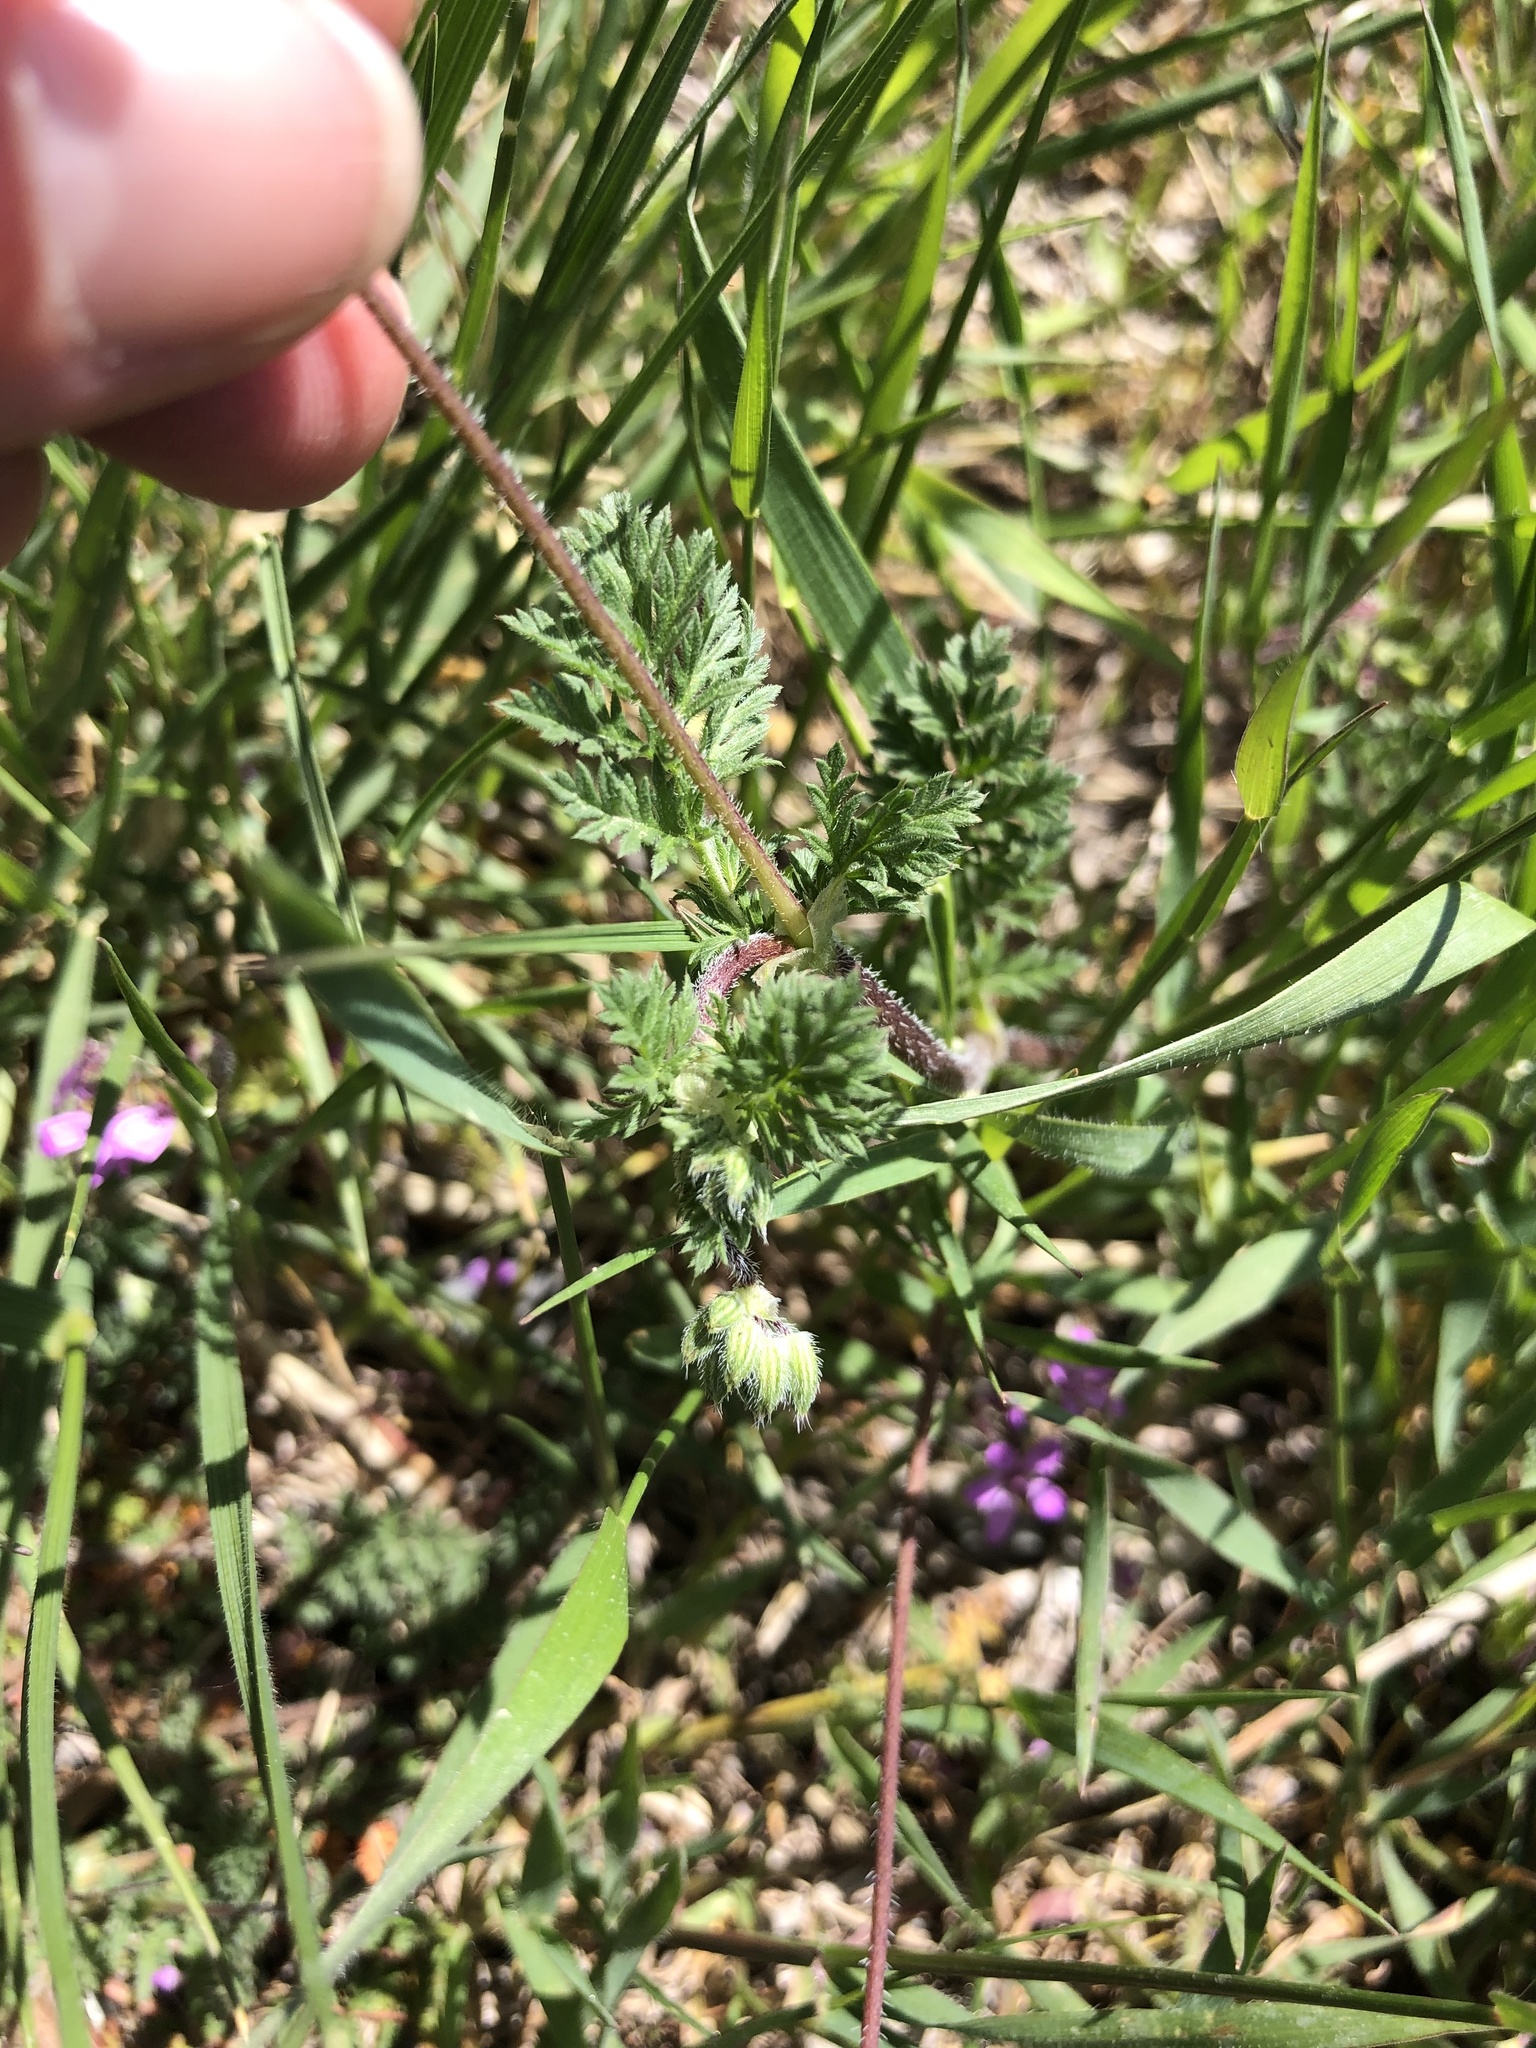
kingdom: Plantae
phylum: Tracheophyta
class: Magnoliopsida
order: Geraniales
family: Geraniaceae
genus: Erodium
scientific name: Erodium cicutarium
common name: Common stork's-bill
